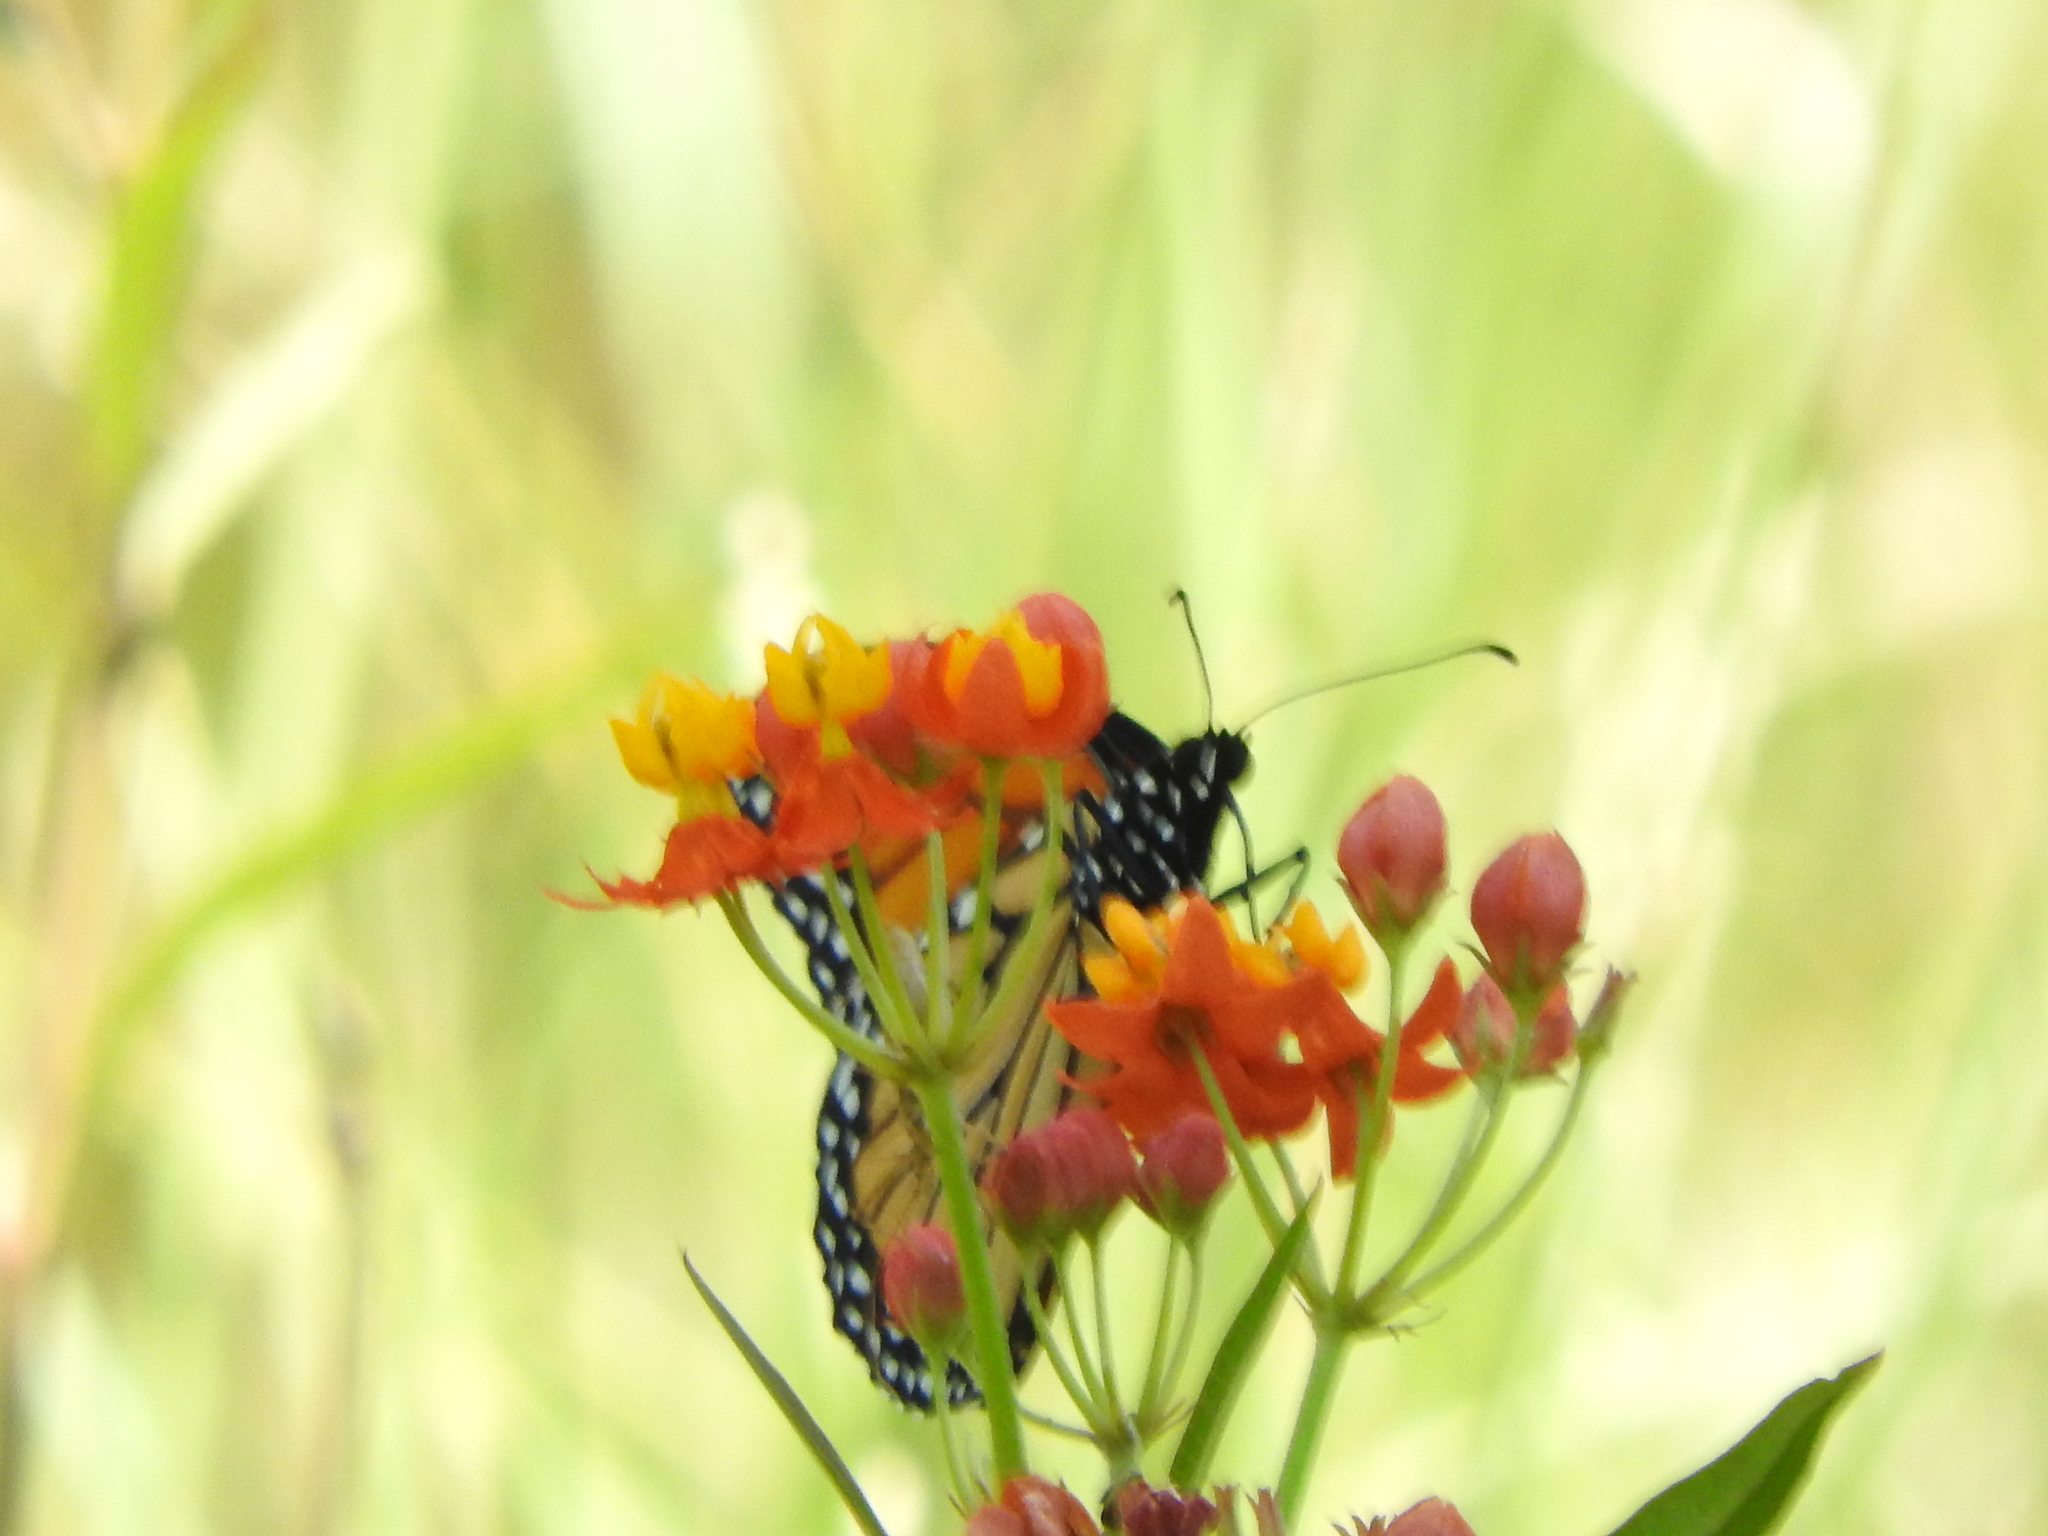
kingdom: Animalia
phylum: Arthropoda
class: Insecta
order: Lepidoptera
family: Nymphalidae
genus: Danaus
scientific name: Danaus plexippus
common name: Monarch
